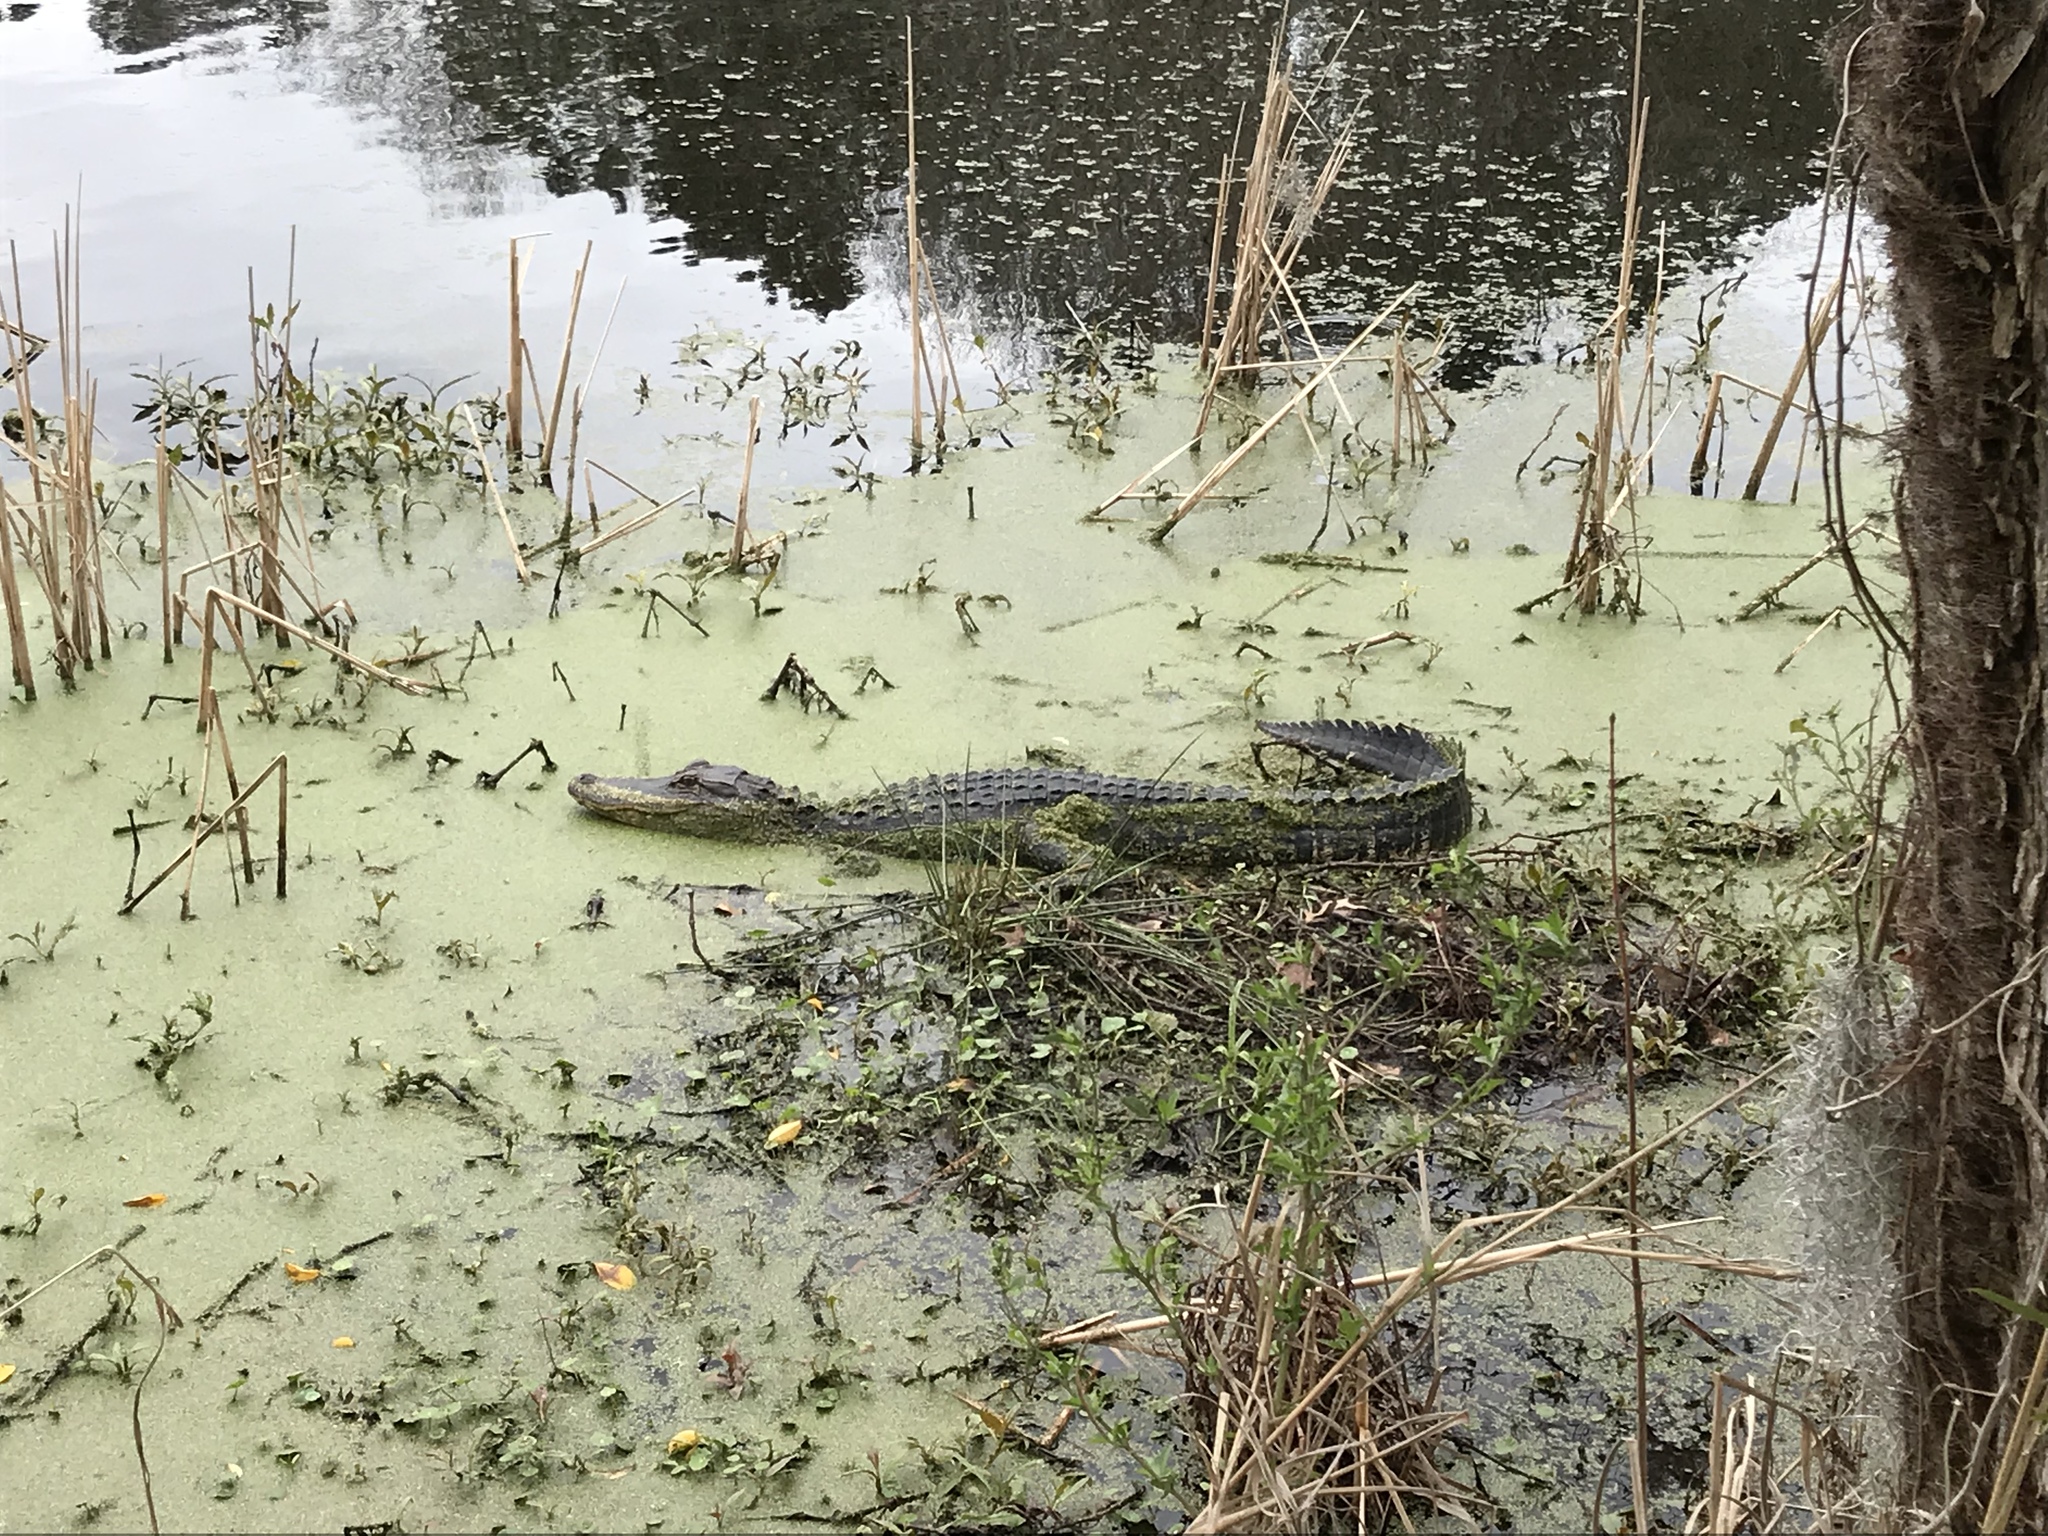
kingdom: Animalia
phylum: Chordata
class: Crocodylia
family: Alligatoridae
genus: Alligator
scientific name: Alligator mississippiensis
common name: American alligator
